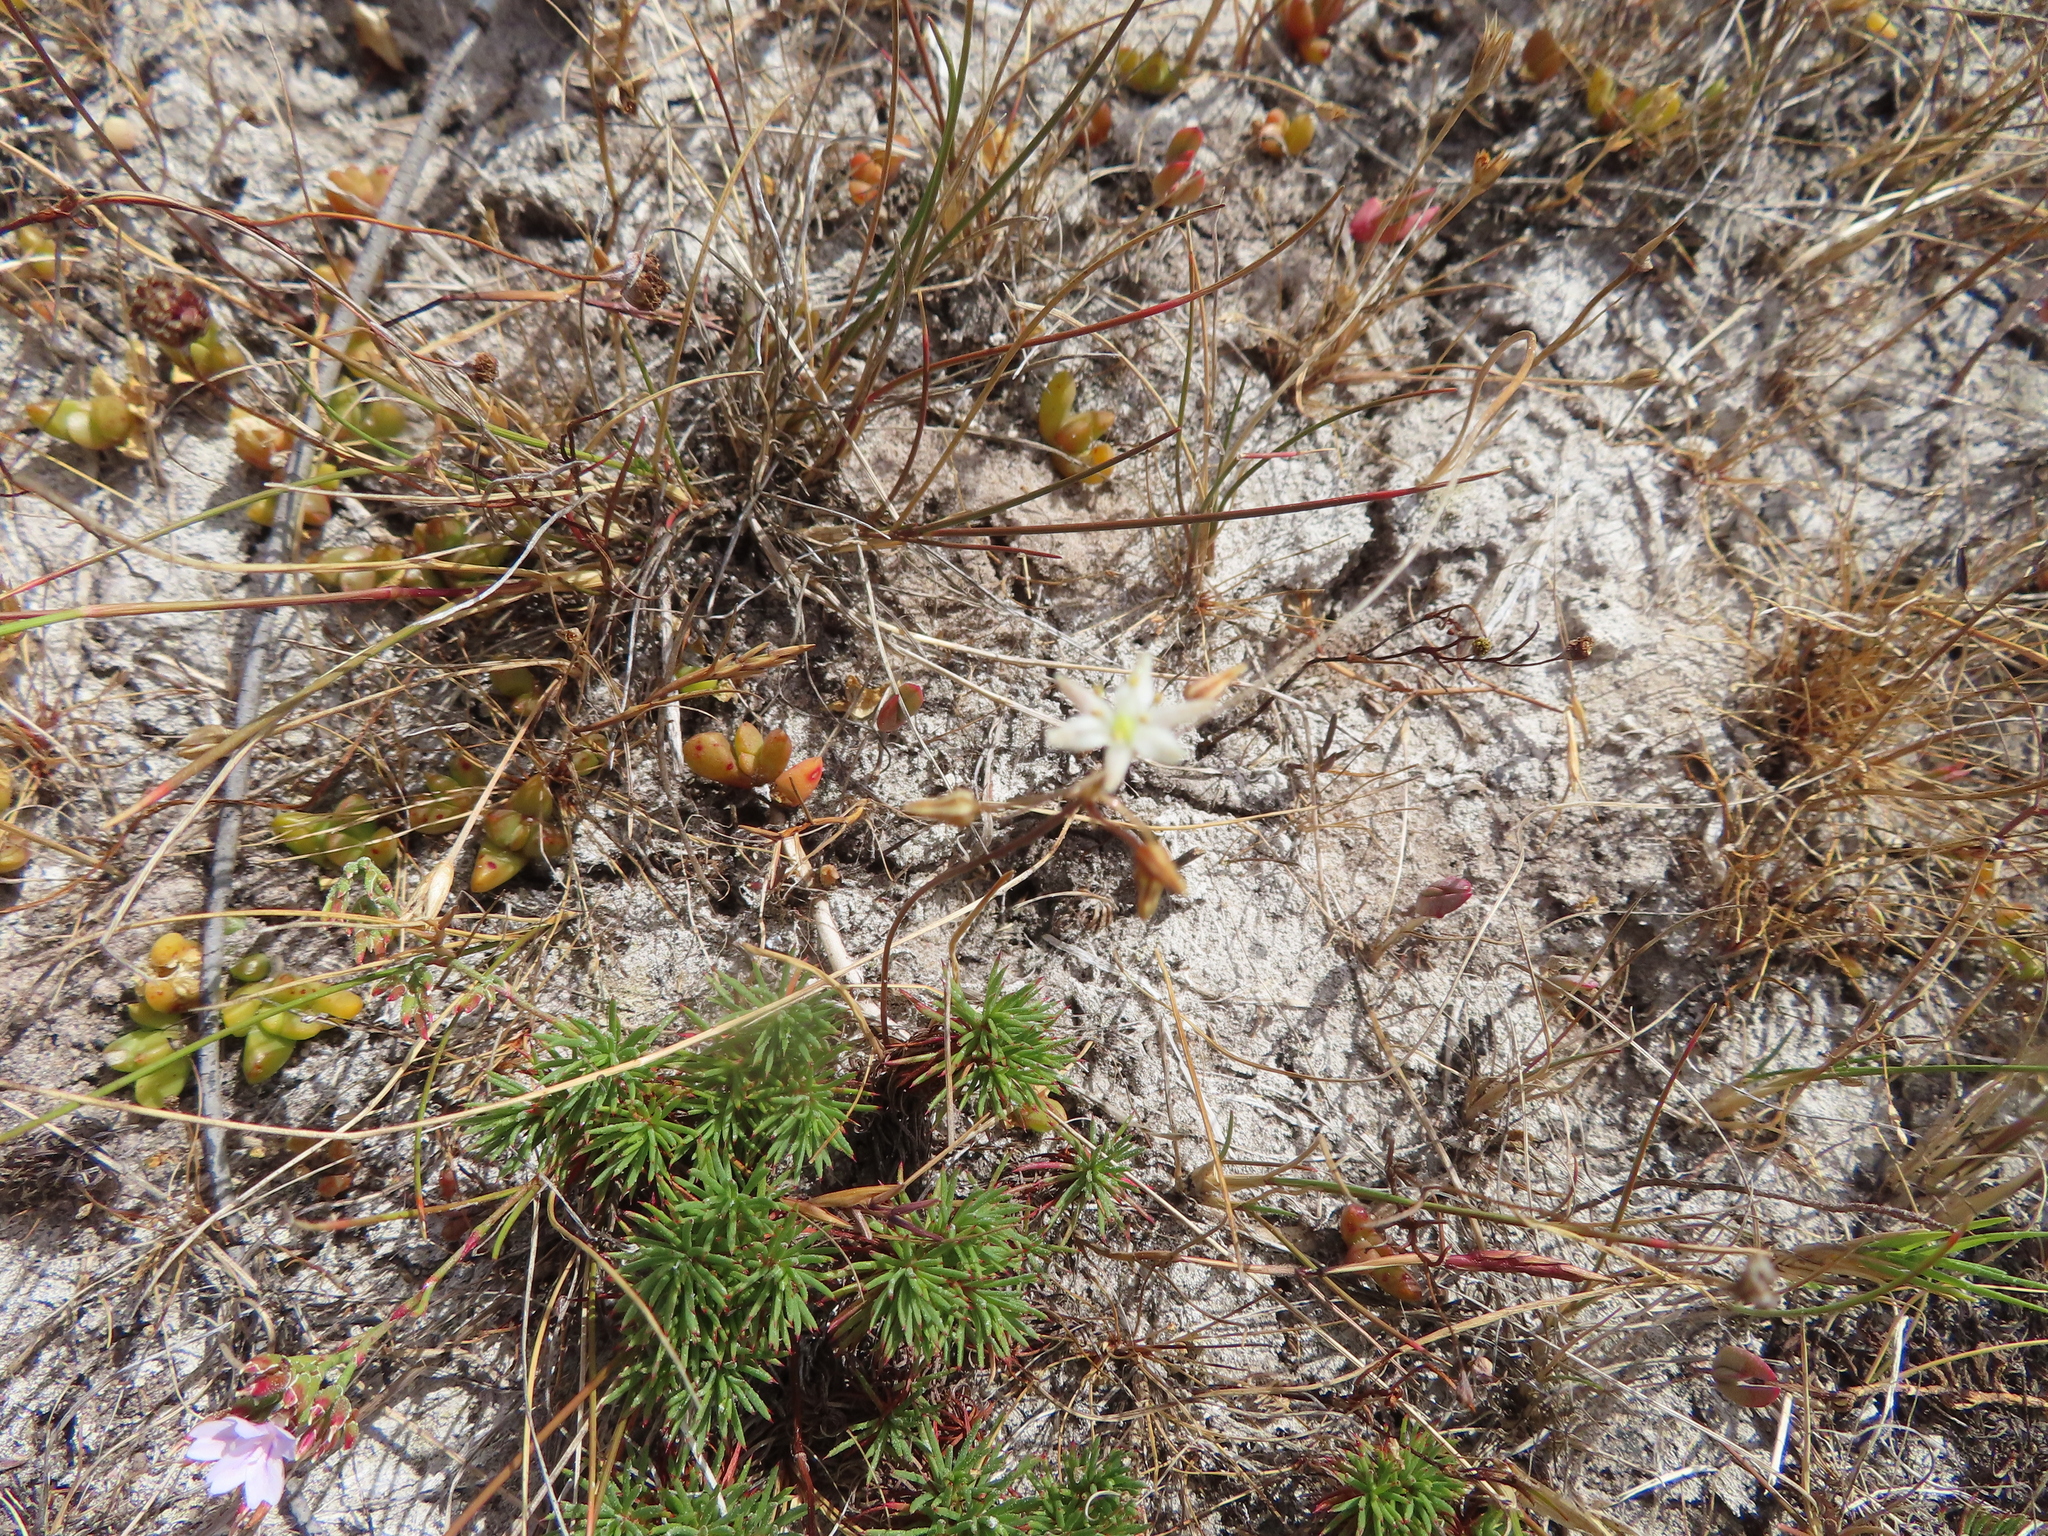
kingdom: Plantae
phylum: Tracheophyta
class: Liliopsida
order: Asparagales
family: Asparagaceae
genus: Drimia
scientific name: Drimia salteri
